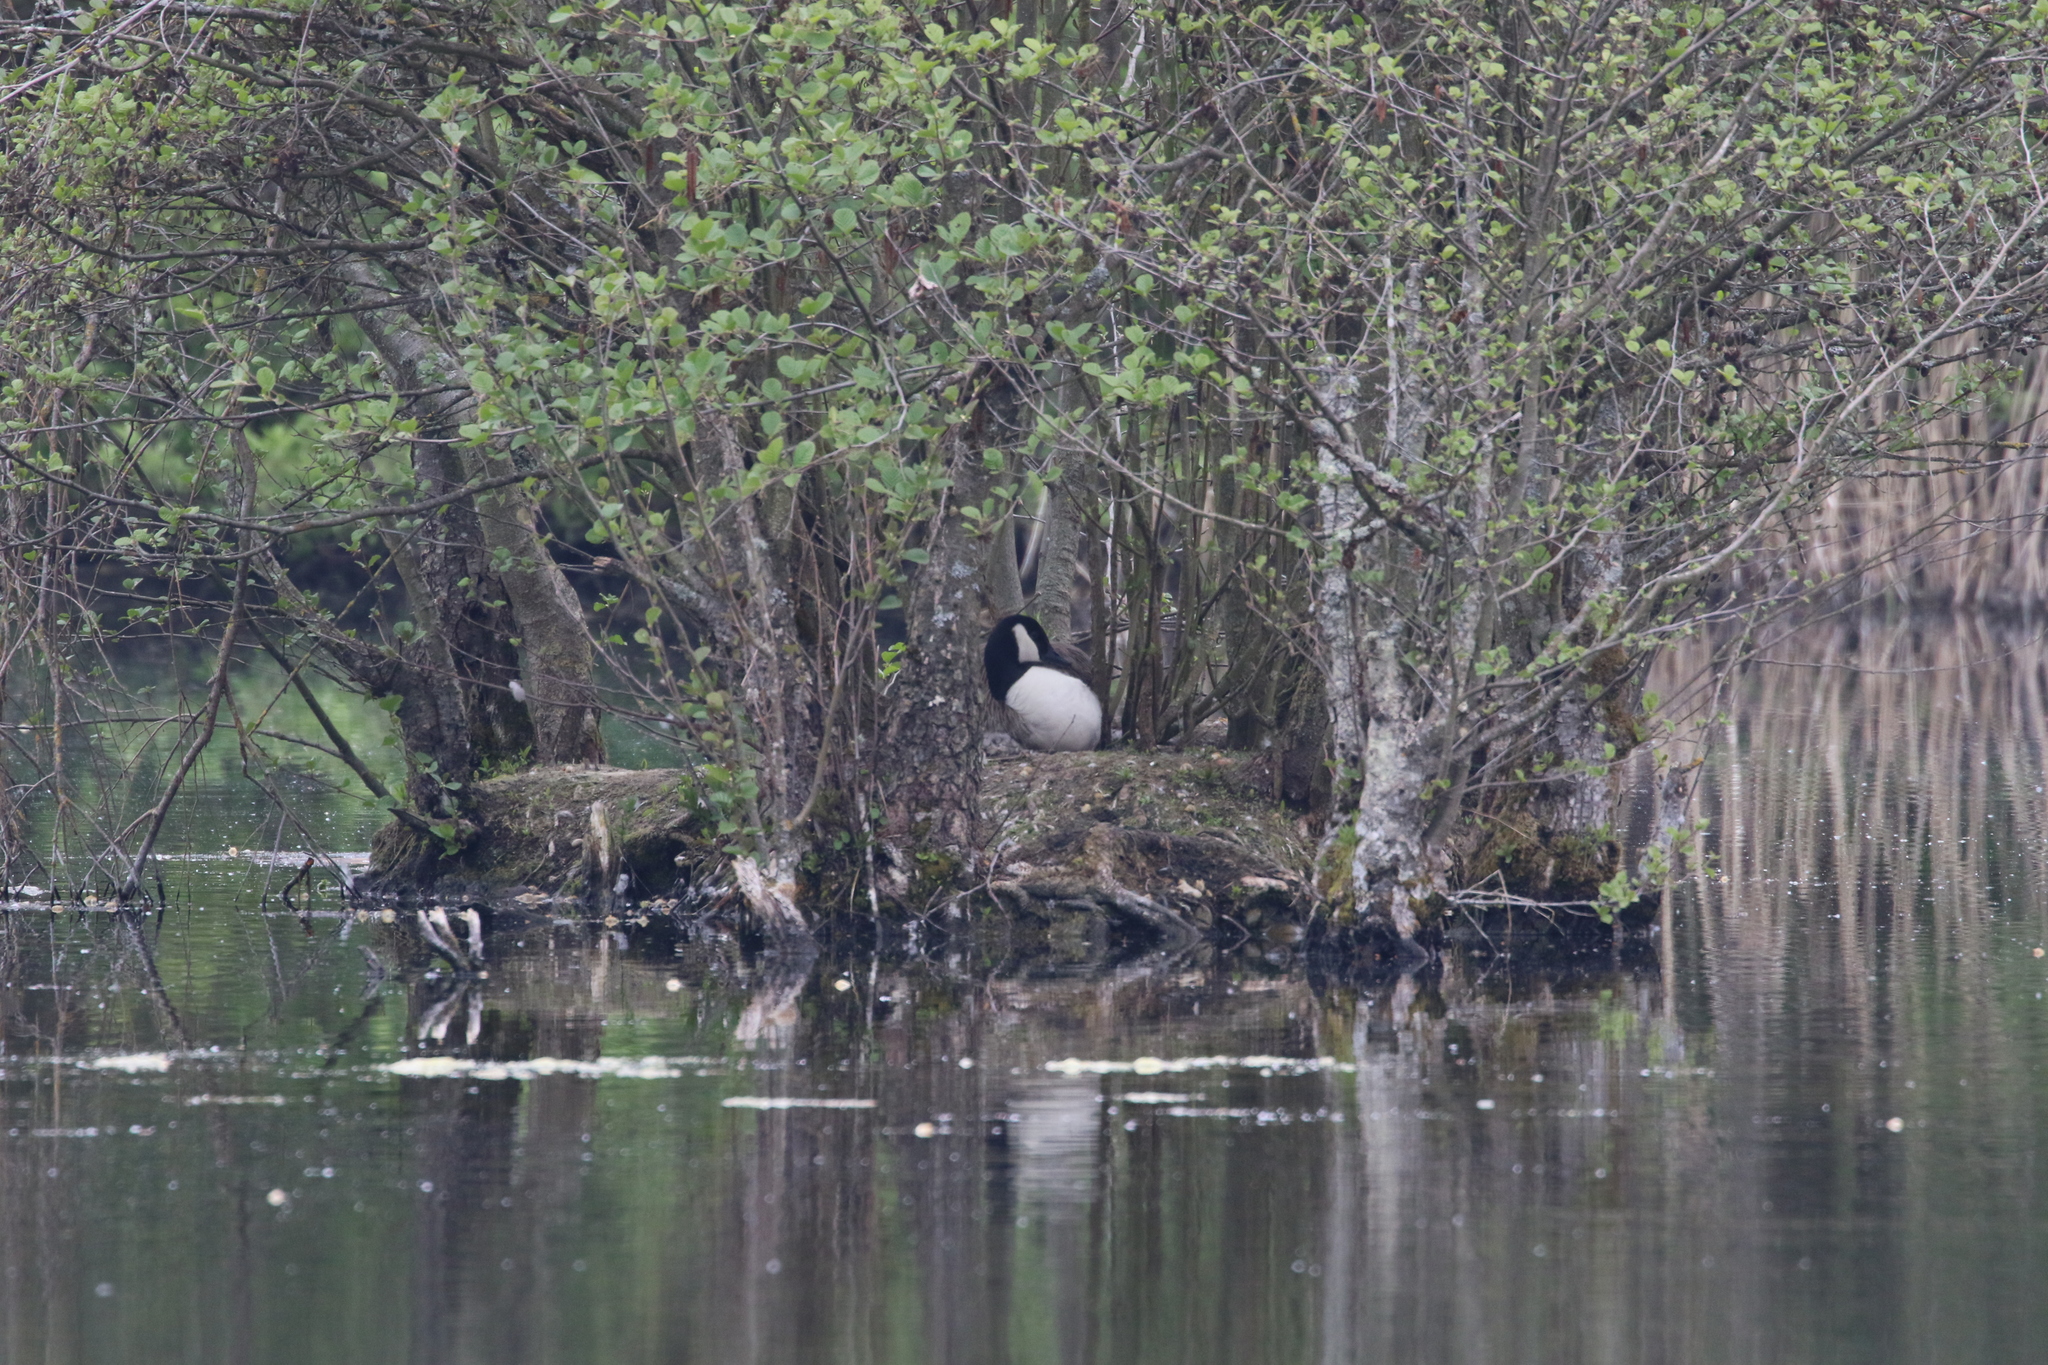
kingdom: Animalia
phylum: Chordata
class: Aves
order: Anseriformes
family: Anatidae
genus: Branta
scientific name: Branta canadensis
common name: Canada goose
